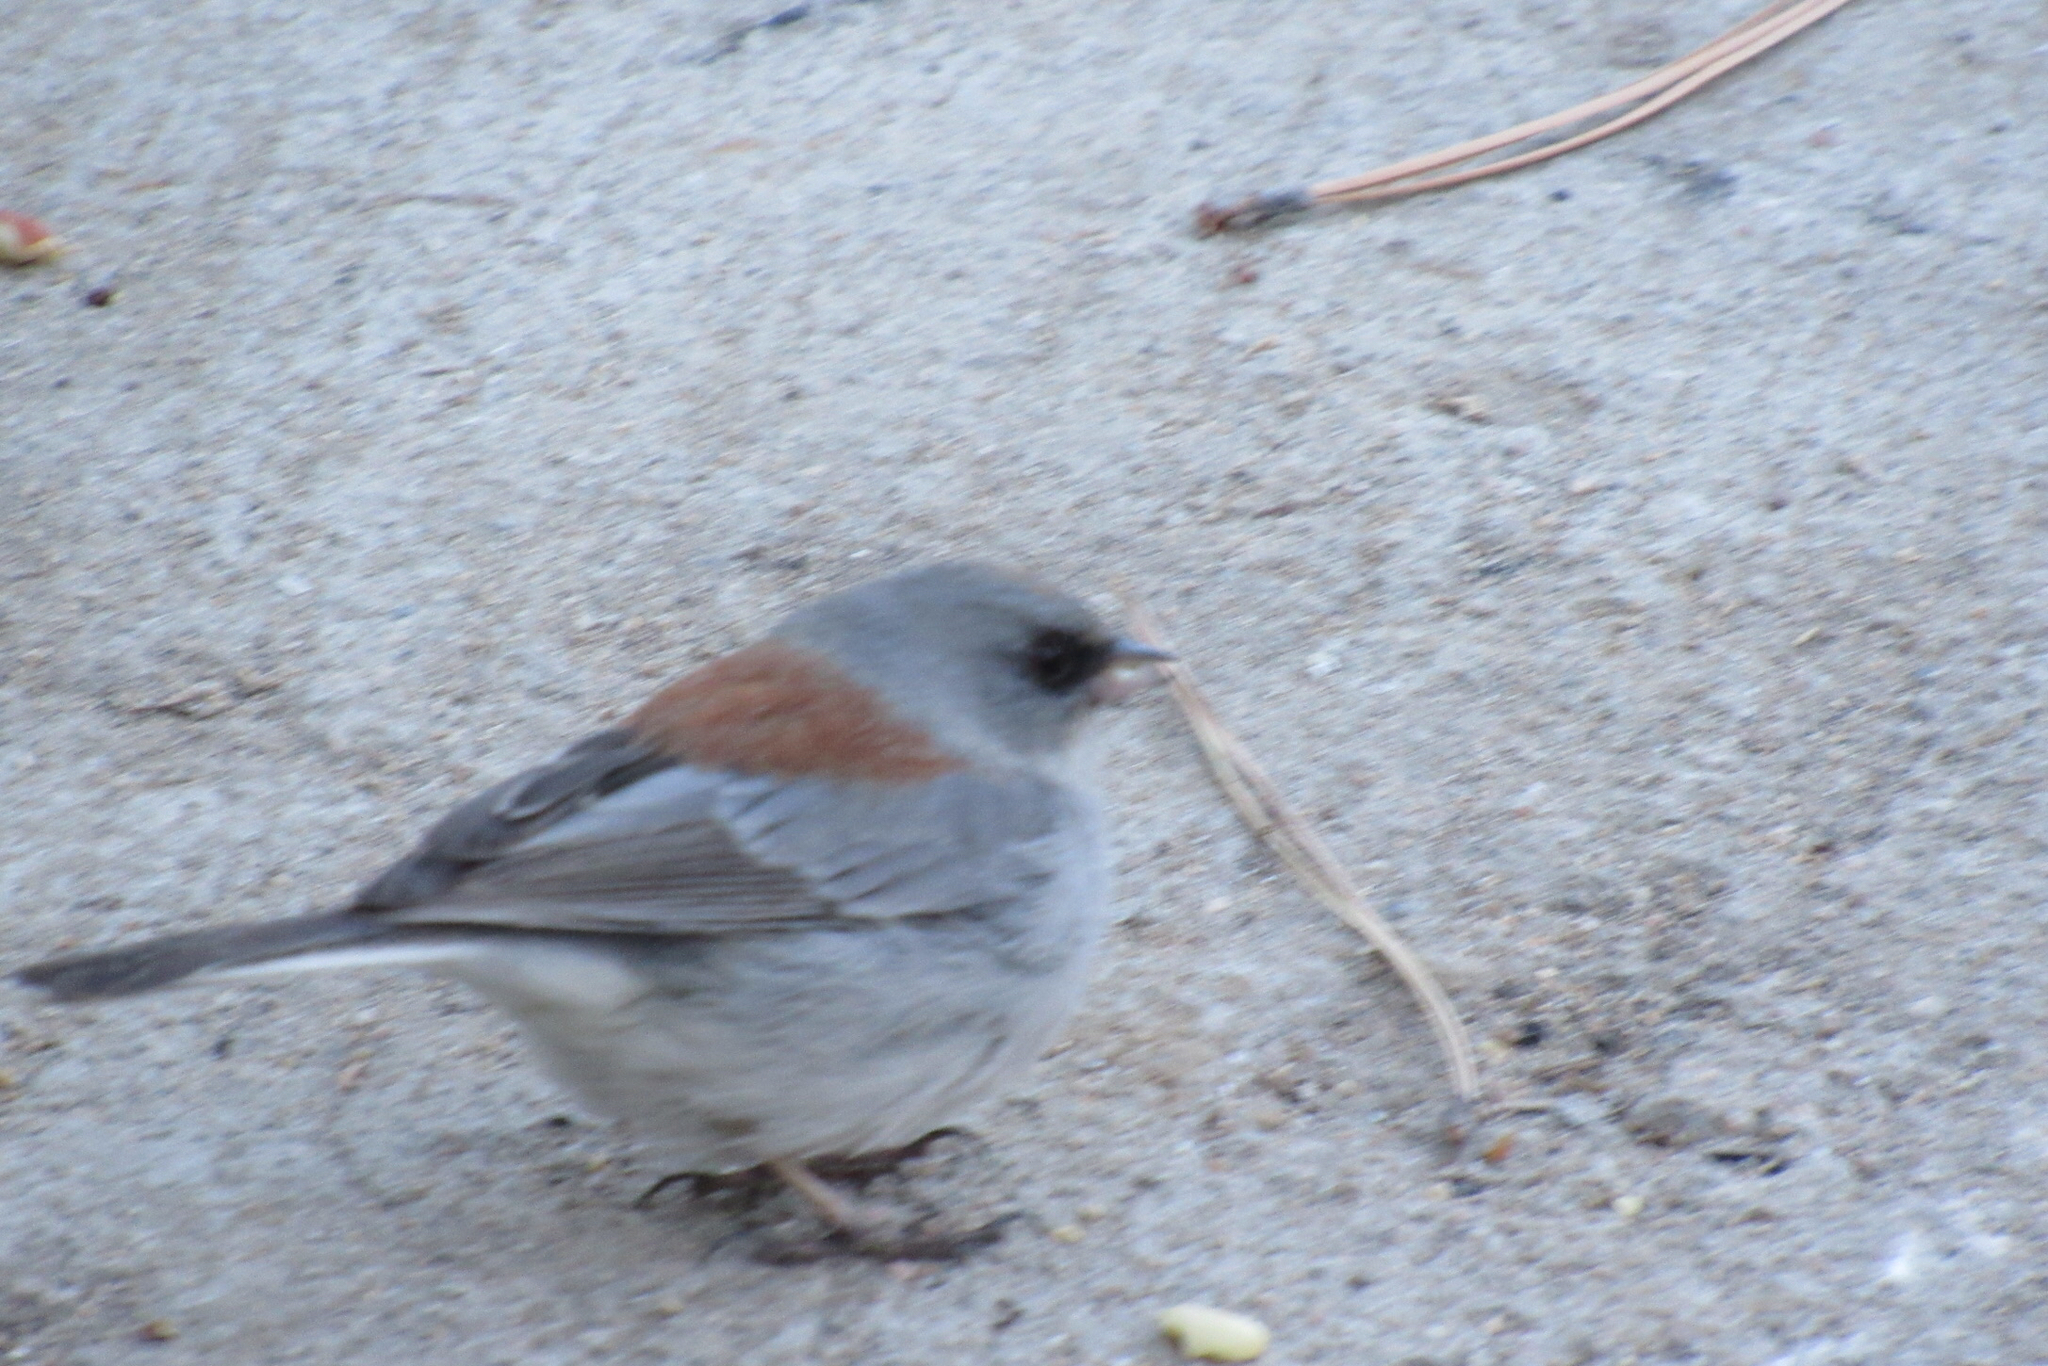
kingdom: Animalia
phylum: Chordata
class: Aves
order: Passeriformes
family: Passerellidae
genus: Junco
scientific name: Junco hyemalis
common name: Dark-eyed junco
